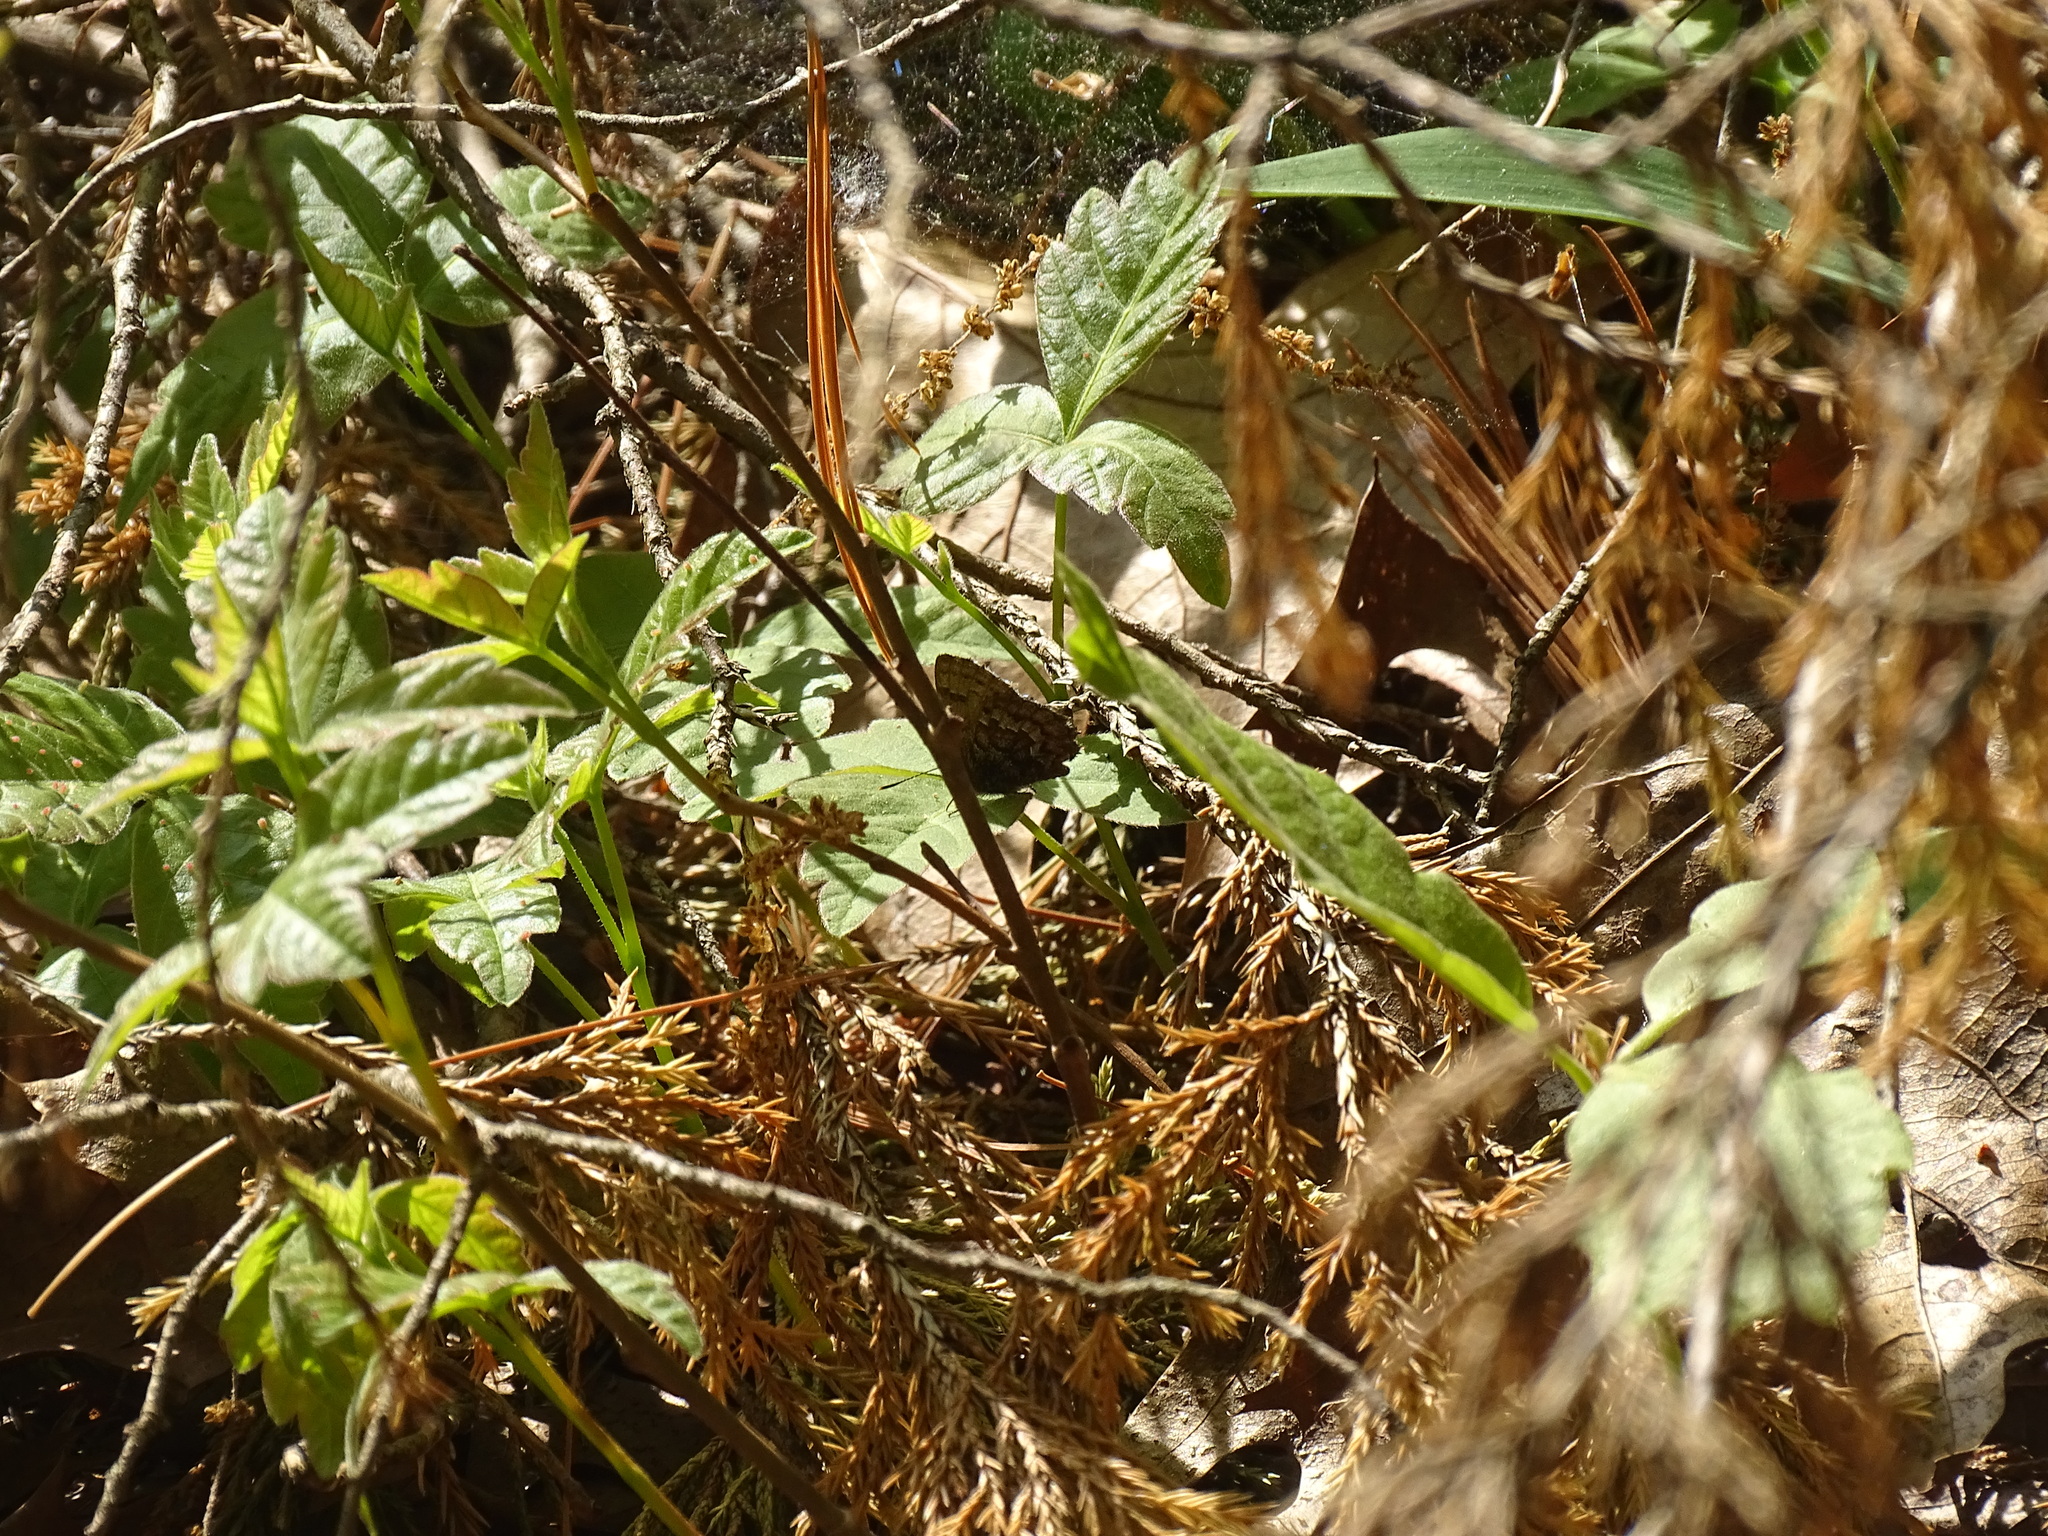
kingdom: Animalia
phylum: Arthropoda
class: Insecta
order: Lepidoptera
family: Lycaenidae
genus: Incisalia
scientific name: Incisalia niphon
